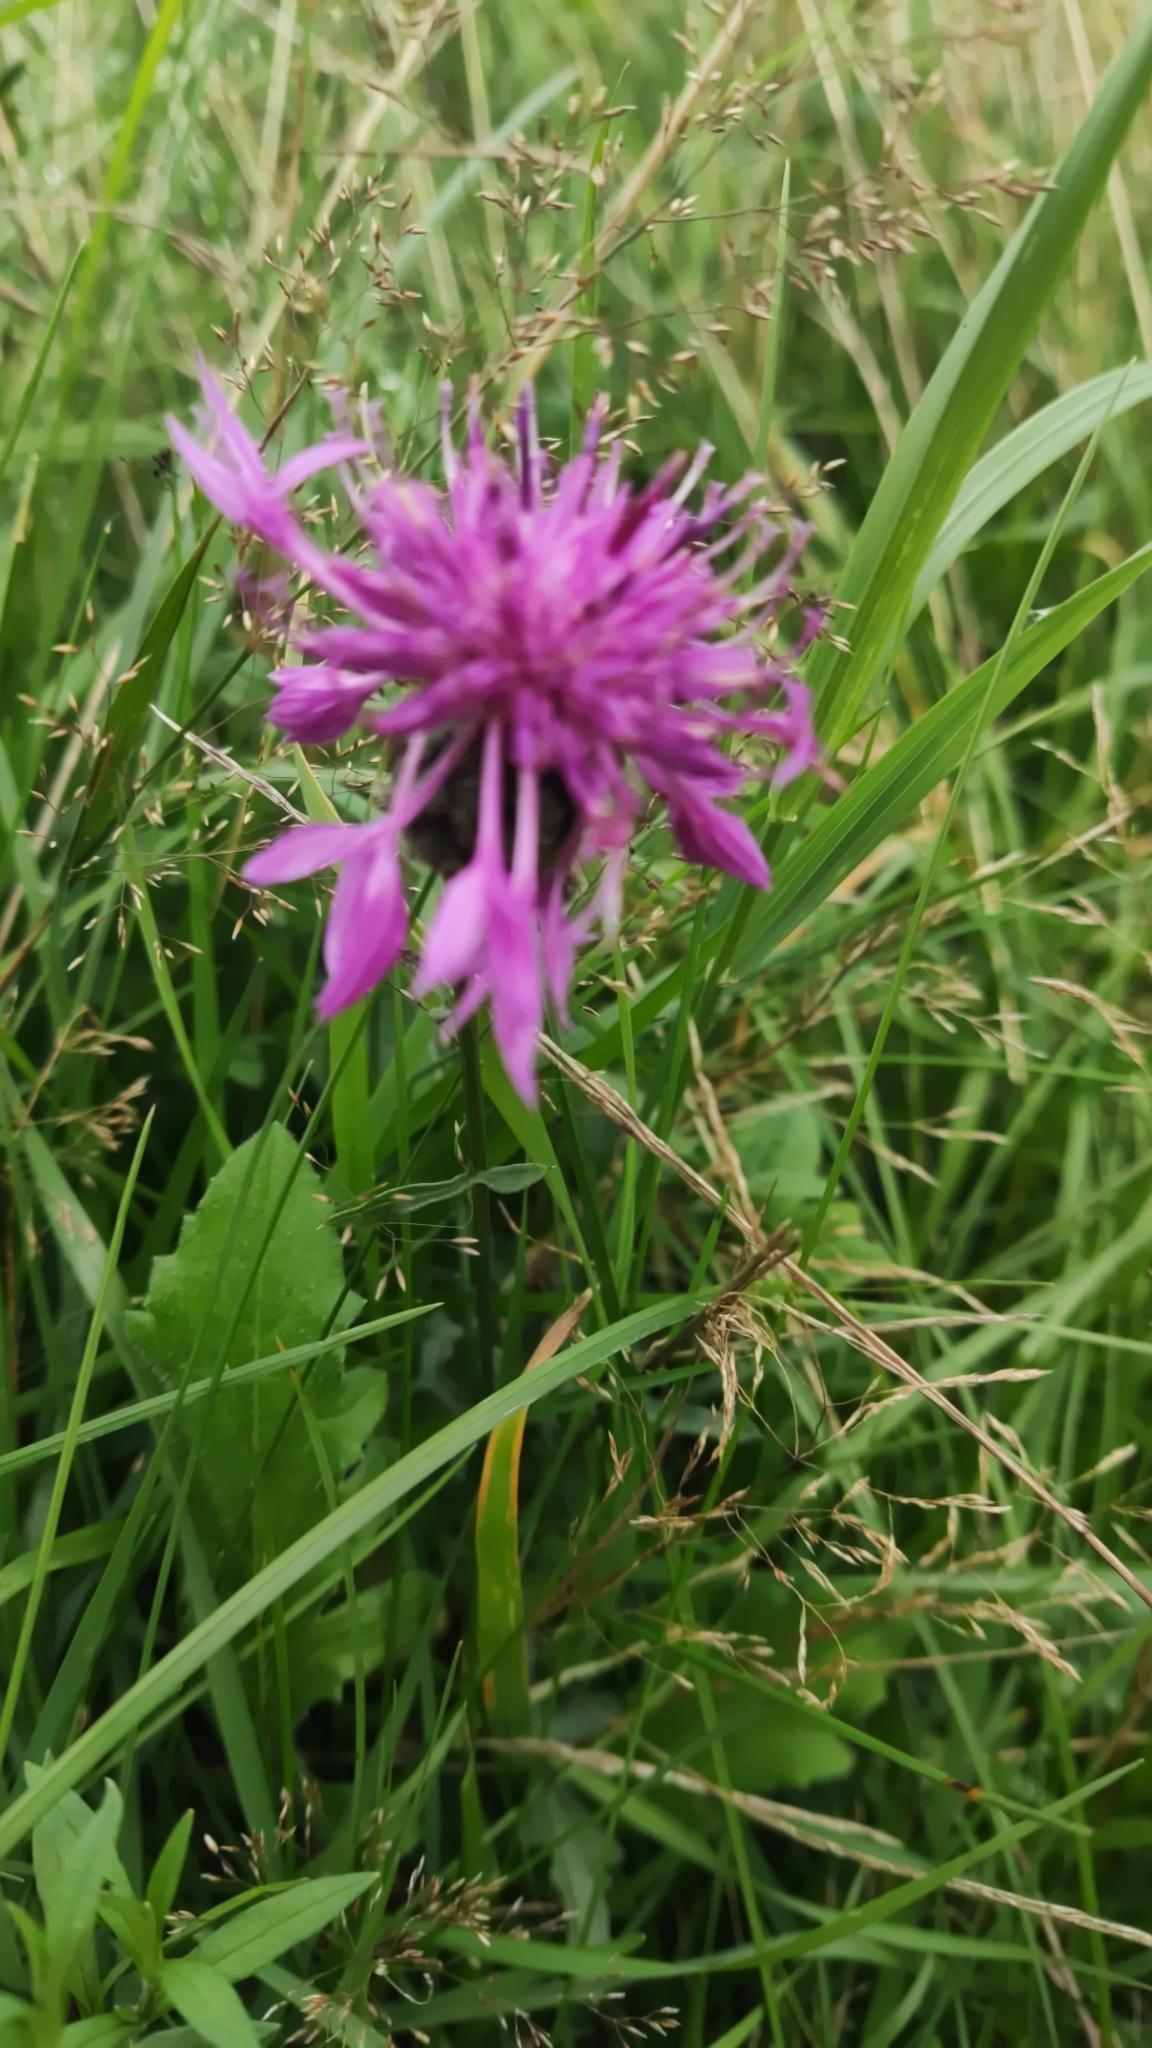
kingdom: Plantae
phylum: Tracheophyta
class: Magnoliopsida
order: Asterales
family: Asteraceae
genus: Centaurea
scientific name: Centaurea scabiosa
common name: Greater knapweed
